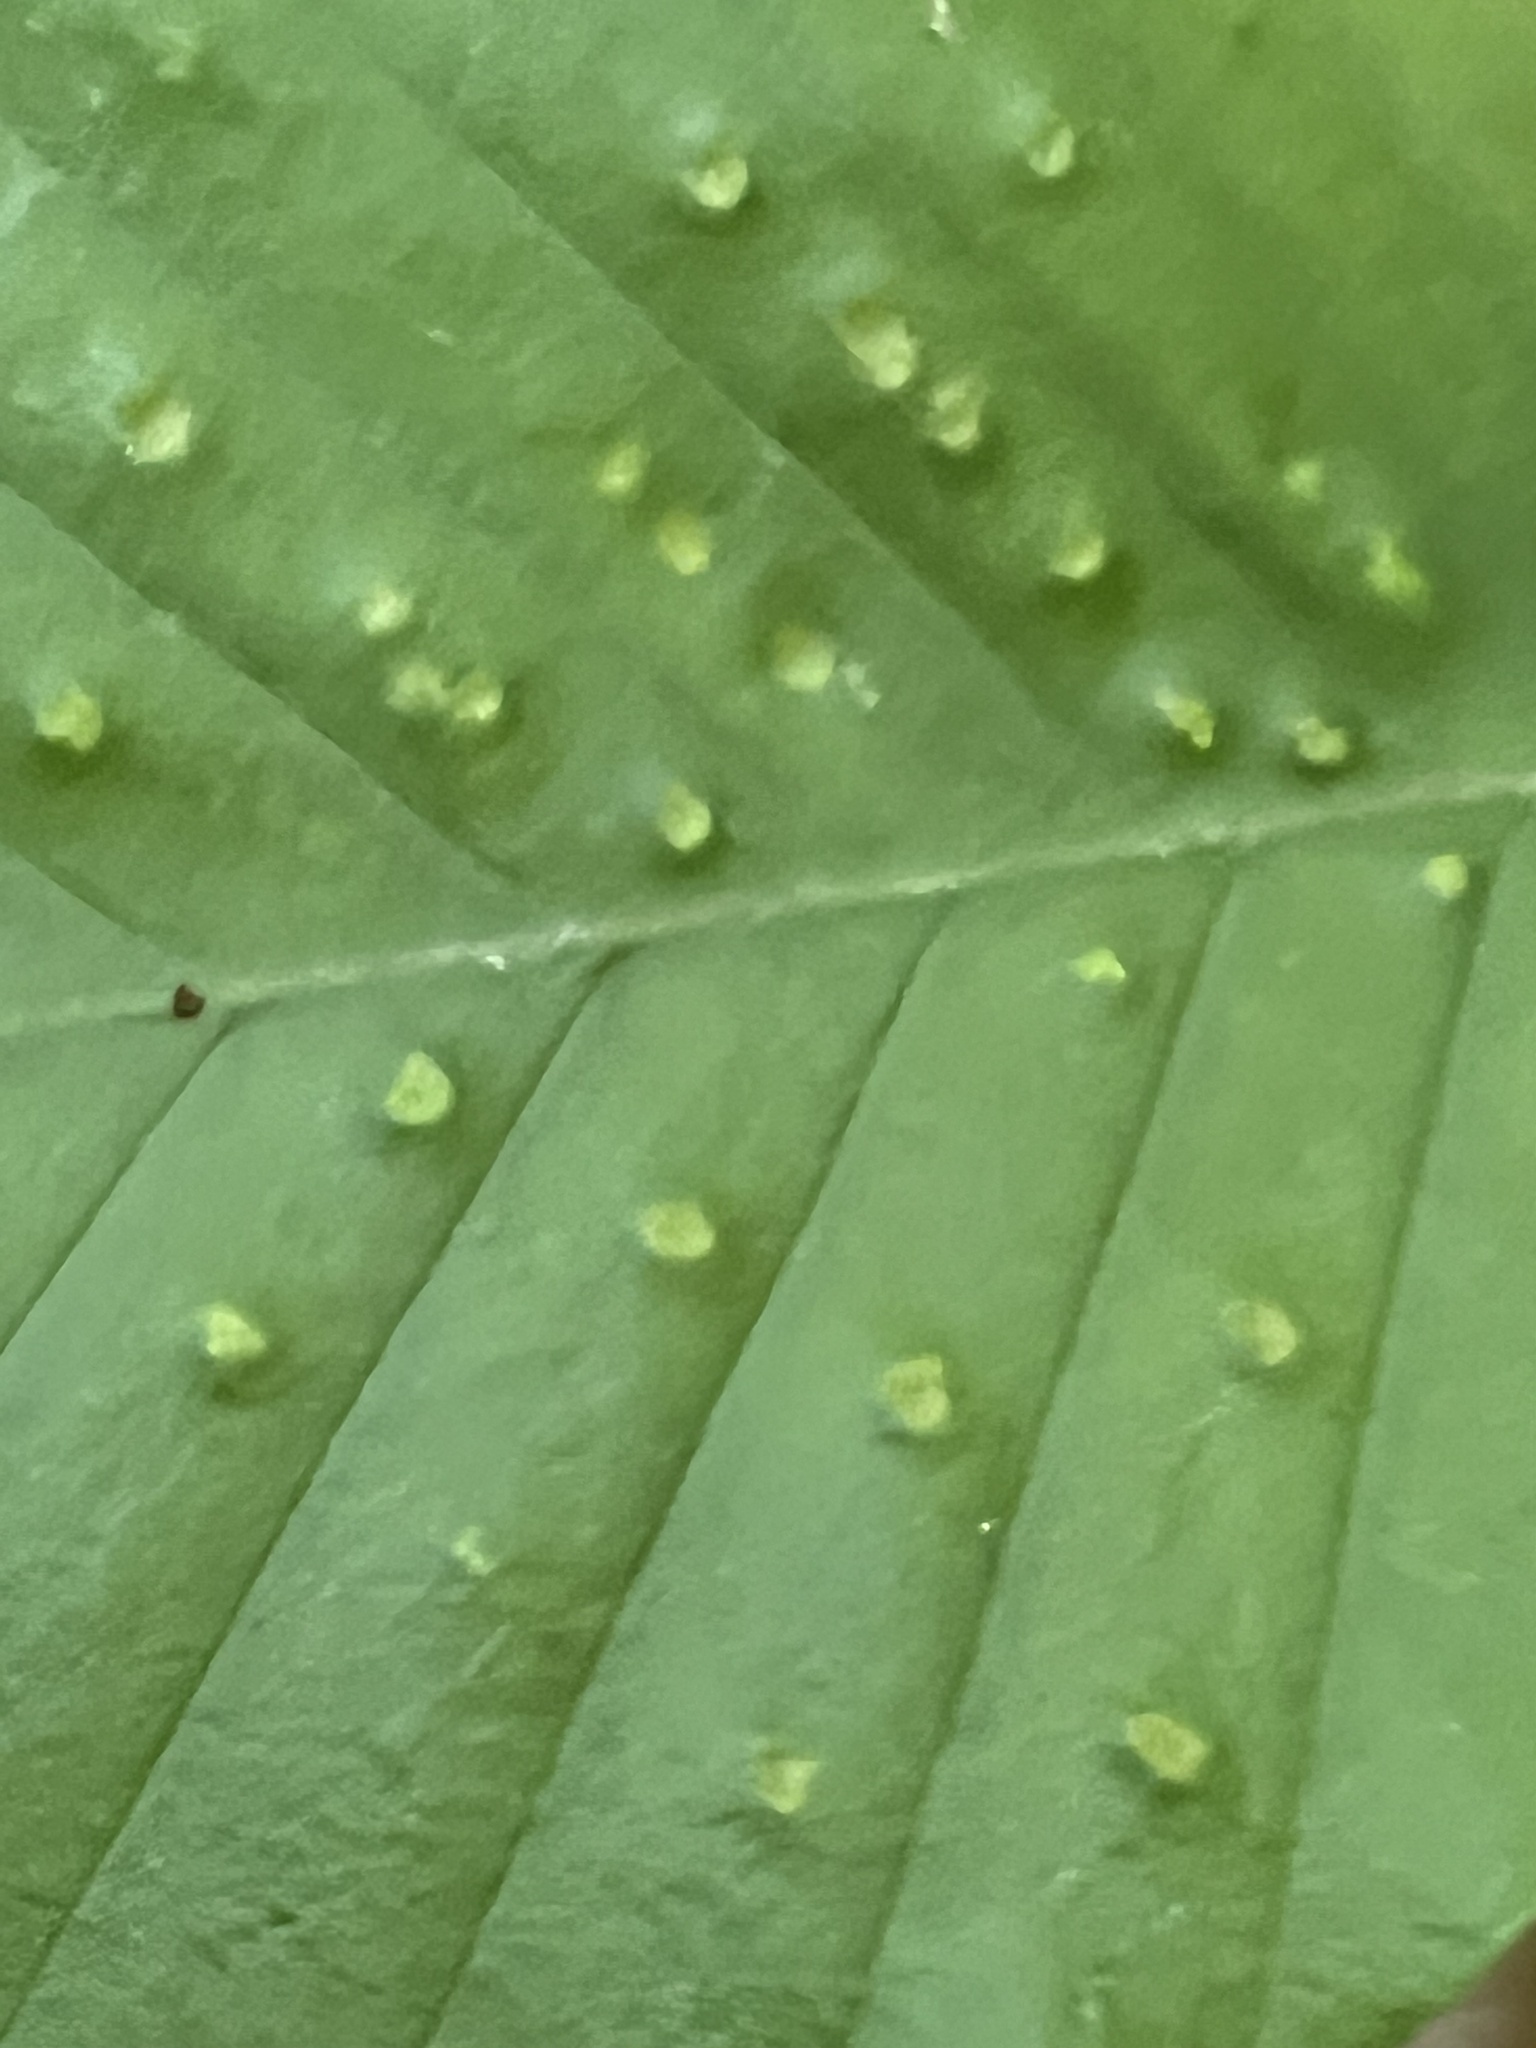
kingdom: Animalia
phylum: Arthropoda
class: Arachnida
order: Trombidiformes
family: Eriophyidae
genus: Acalitus
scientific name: Acalitus
